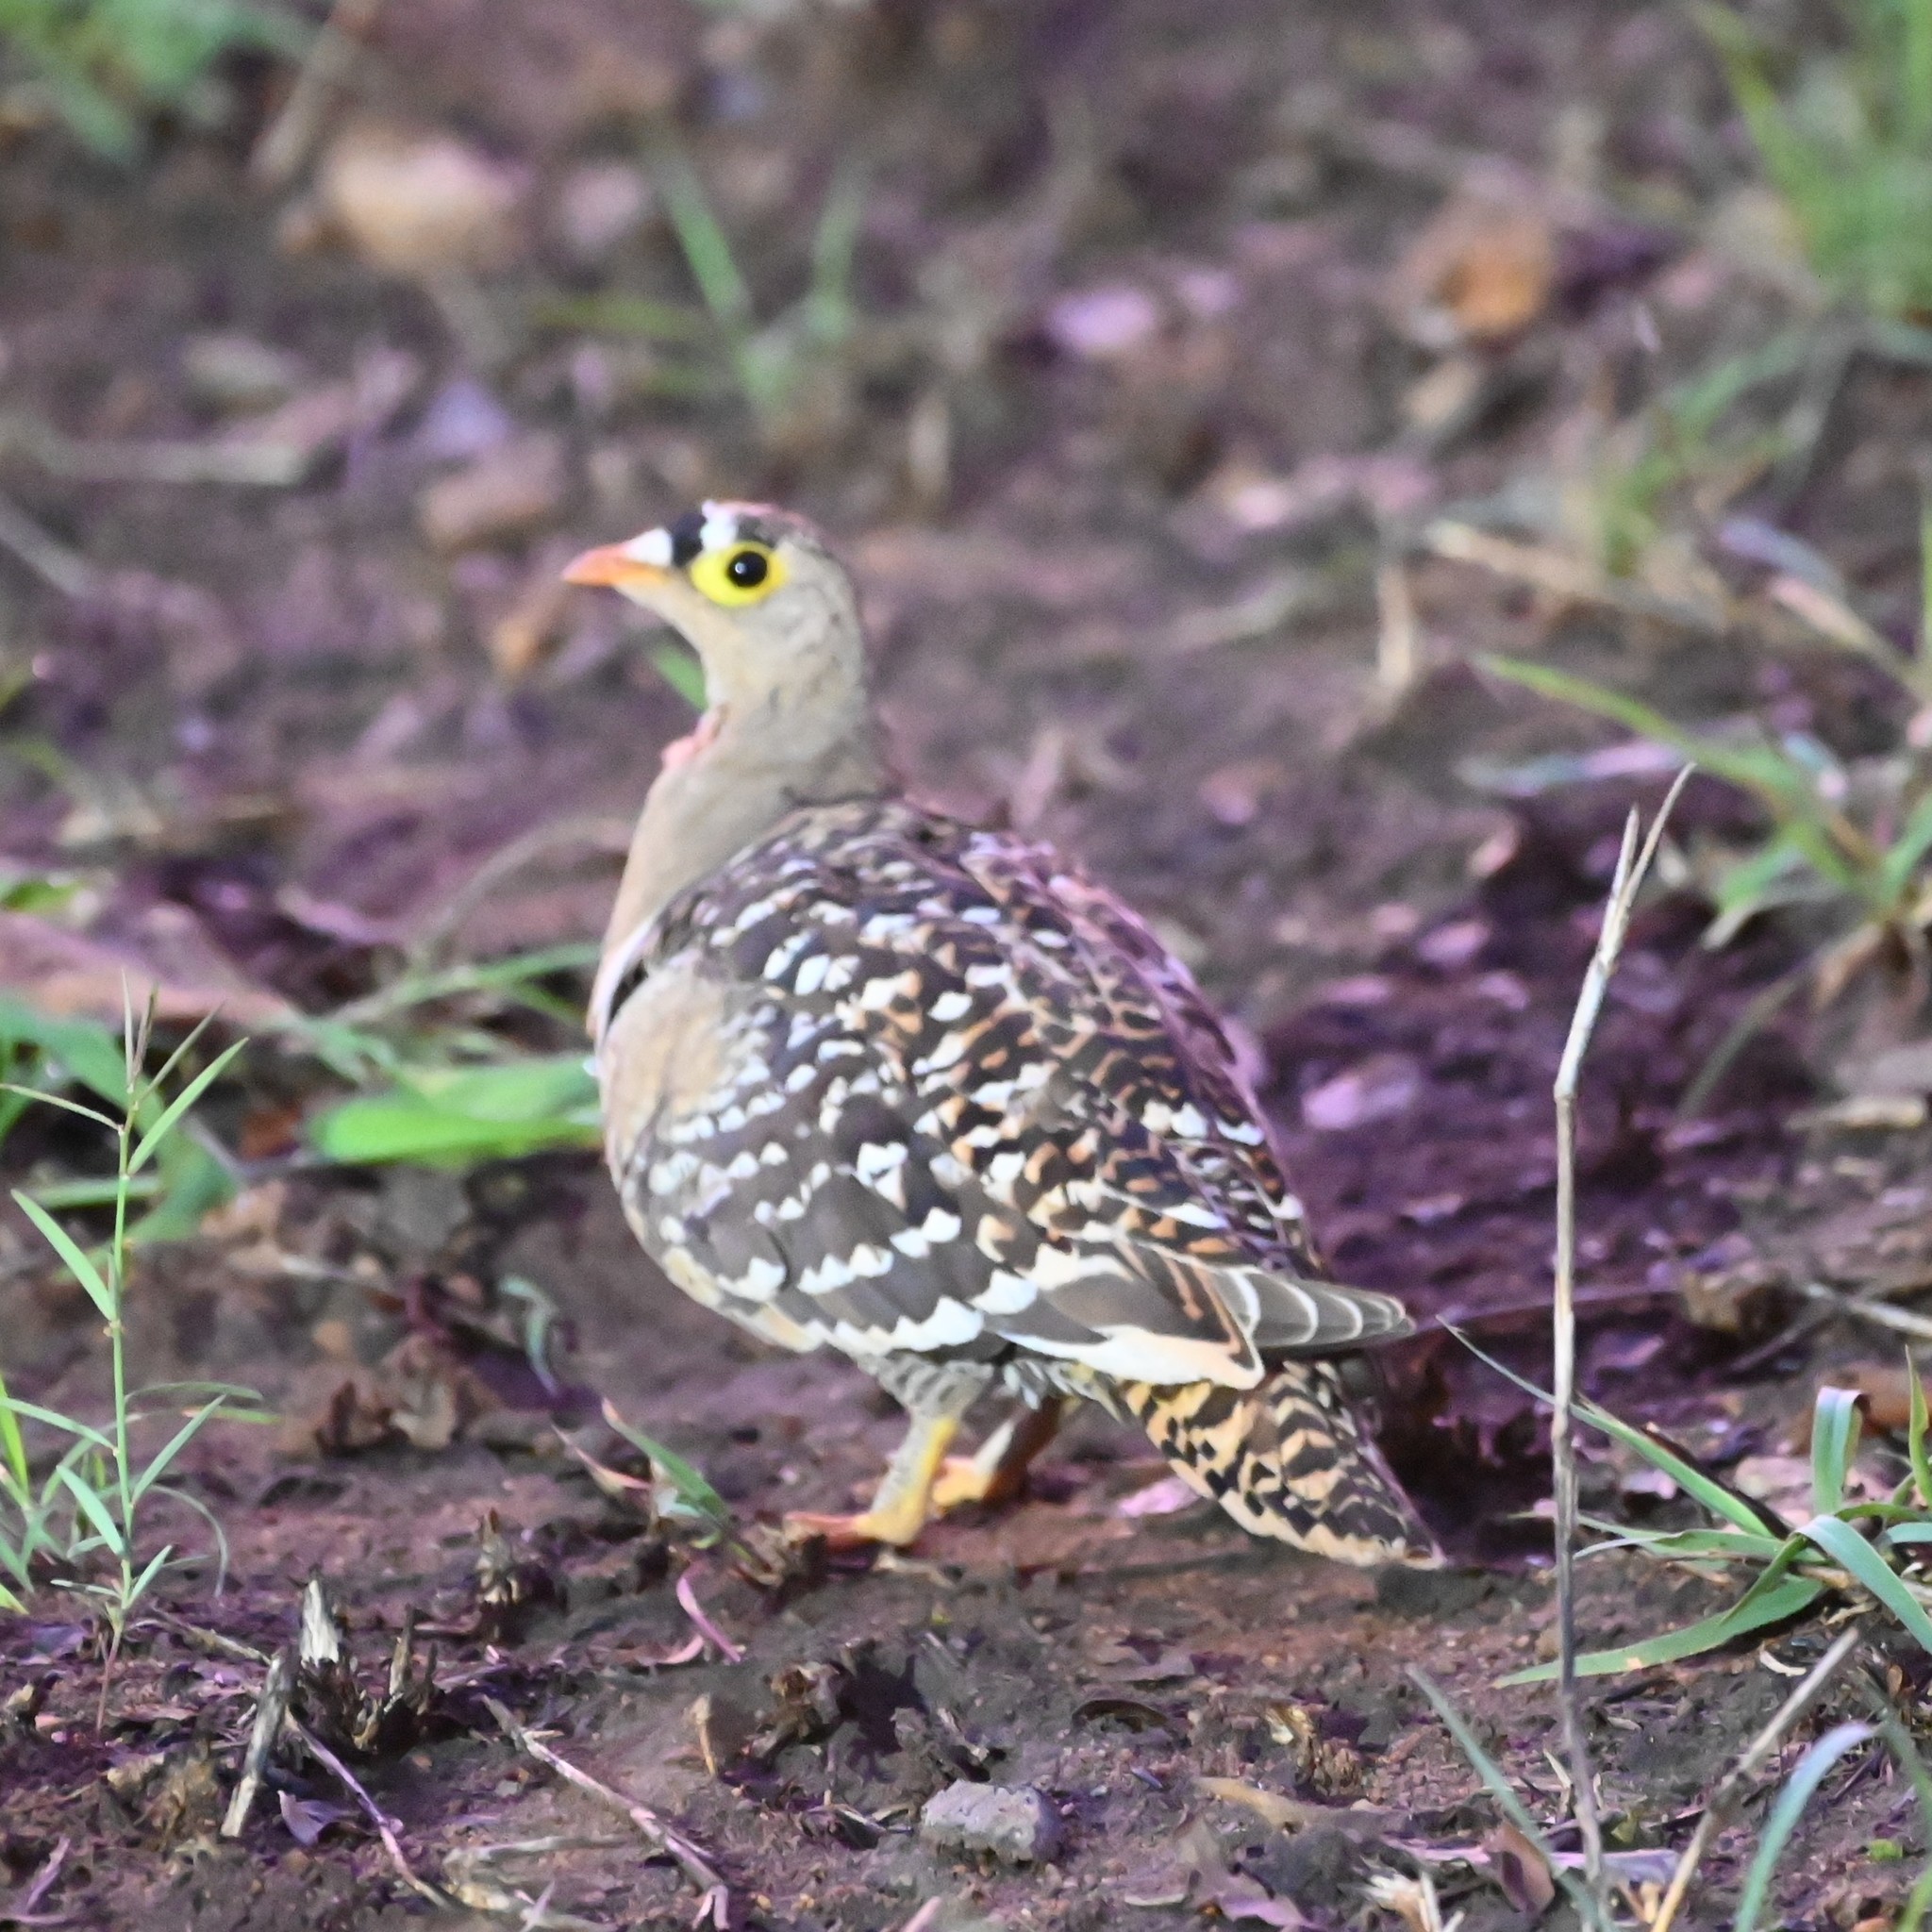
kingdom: Animalia
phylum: Chordata
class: Aves
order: Pteroclidiformes
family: Pteroclididae
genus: Pterocles
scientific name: Pterocles bicinctus
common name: Double-banded sandgrouse
